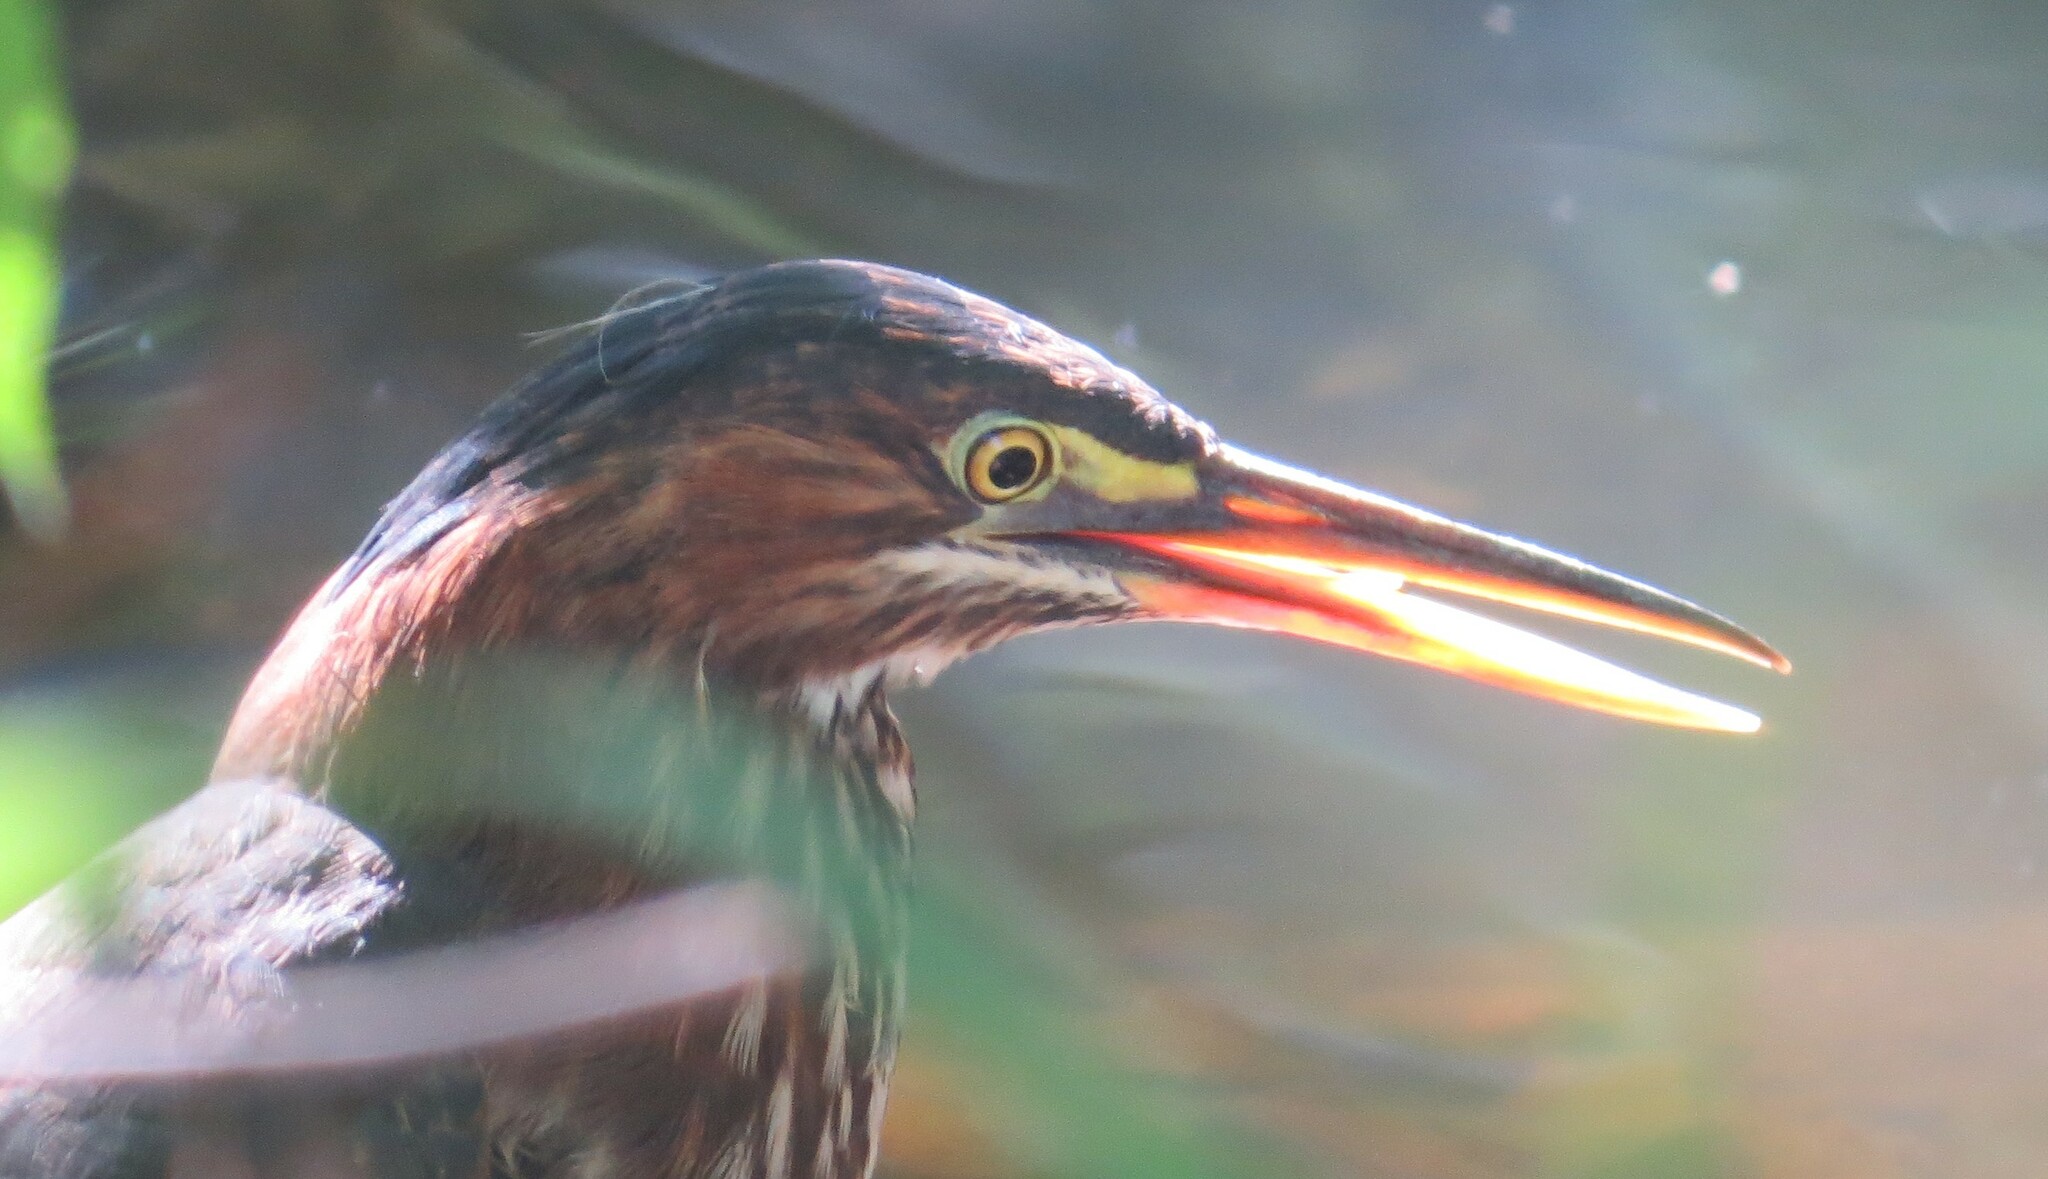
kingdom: Animalia
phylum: Chordata
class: Aves
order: Pelecaniformes
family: Ardeidae
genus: Butorides
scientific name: Butorides virescens
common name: Green heron
